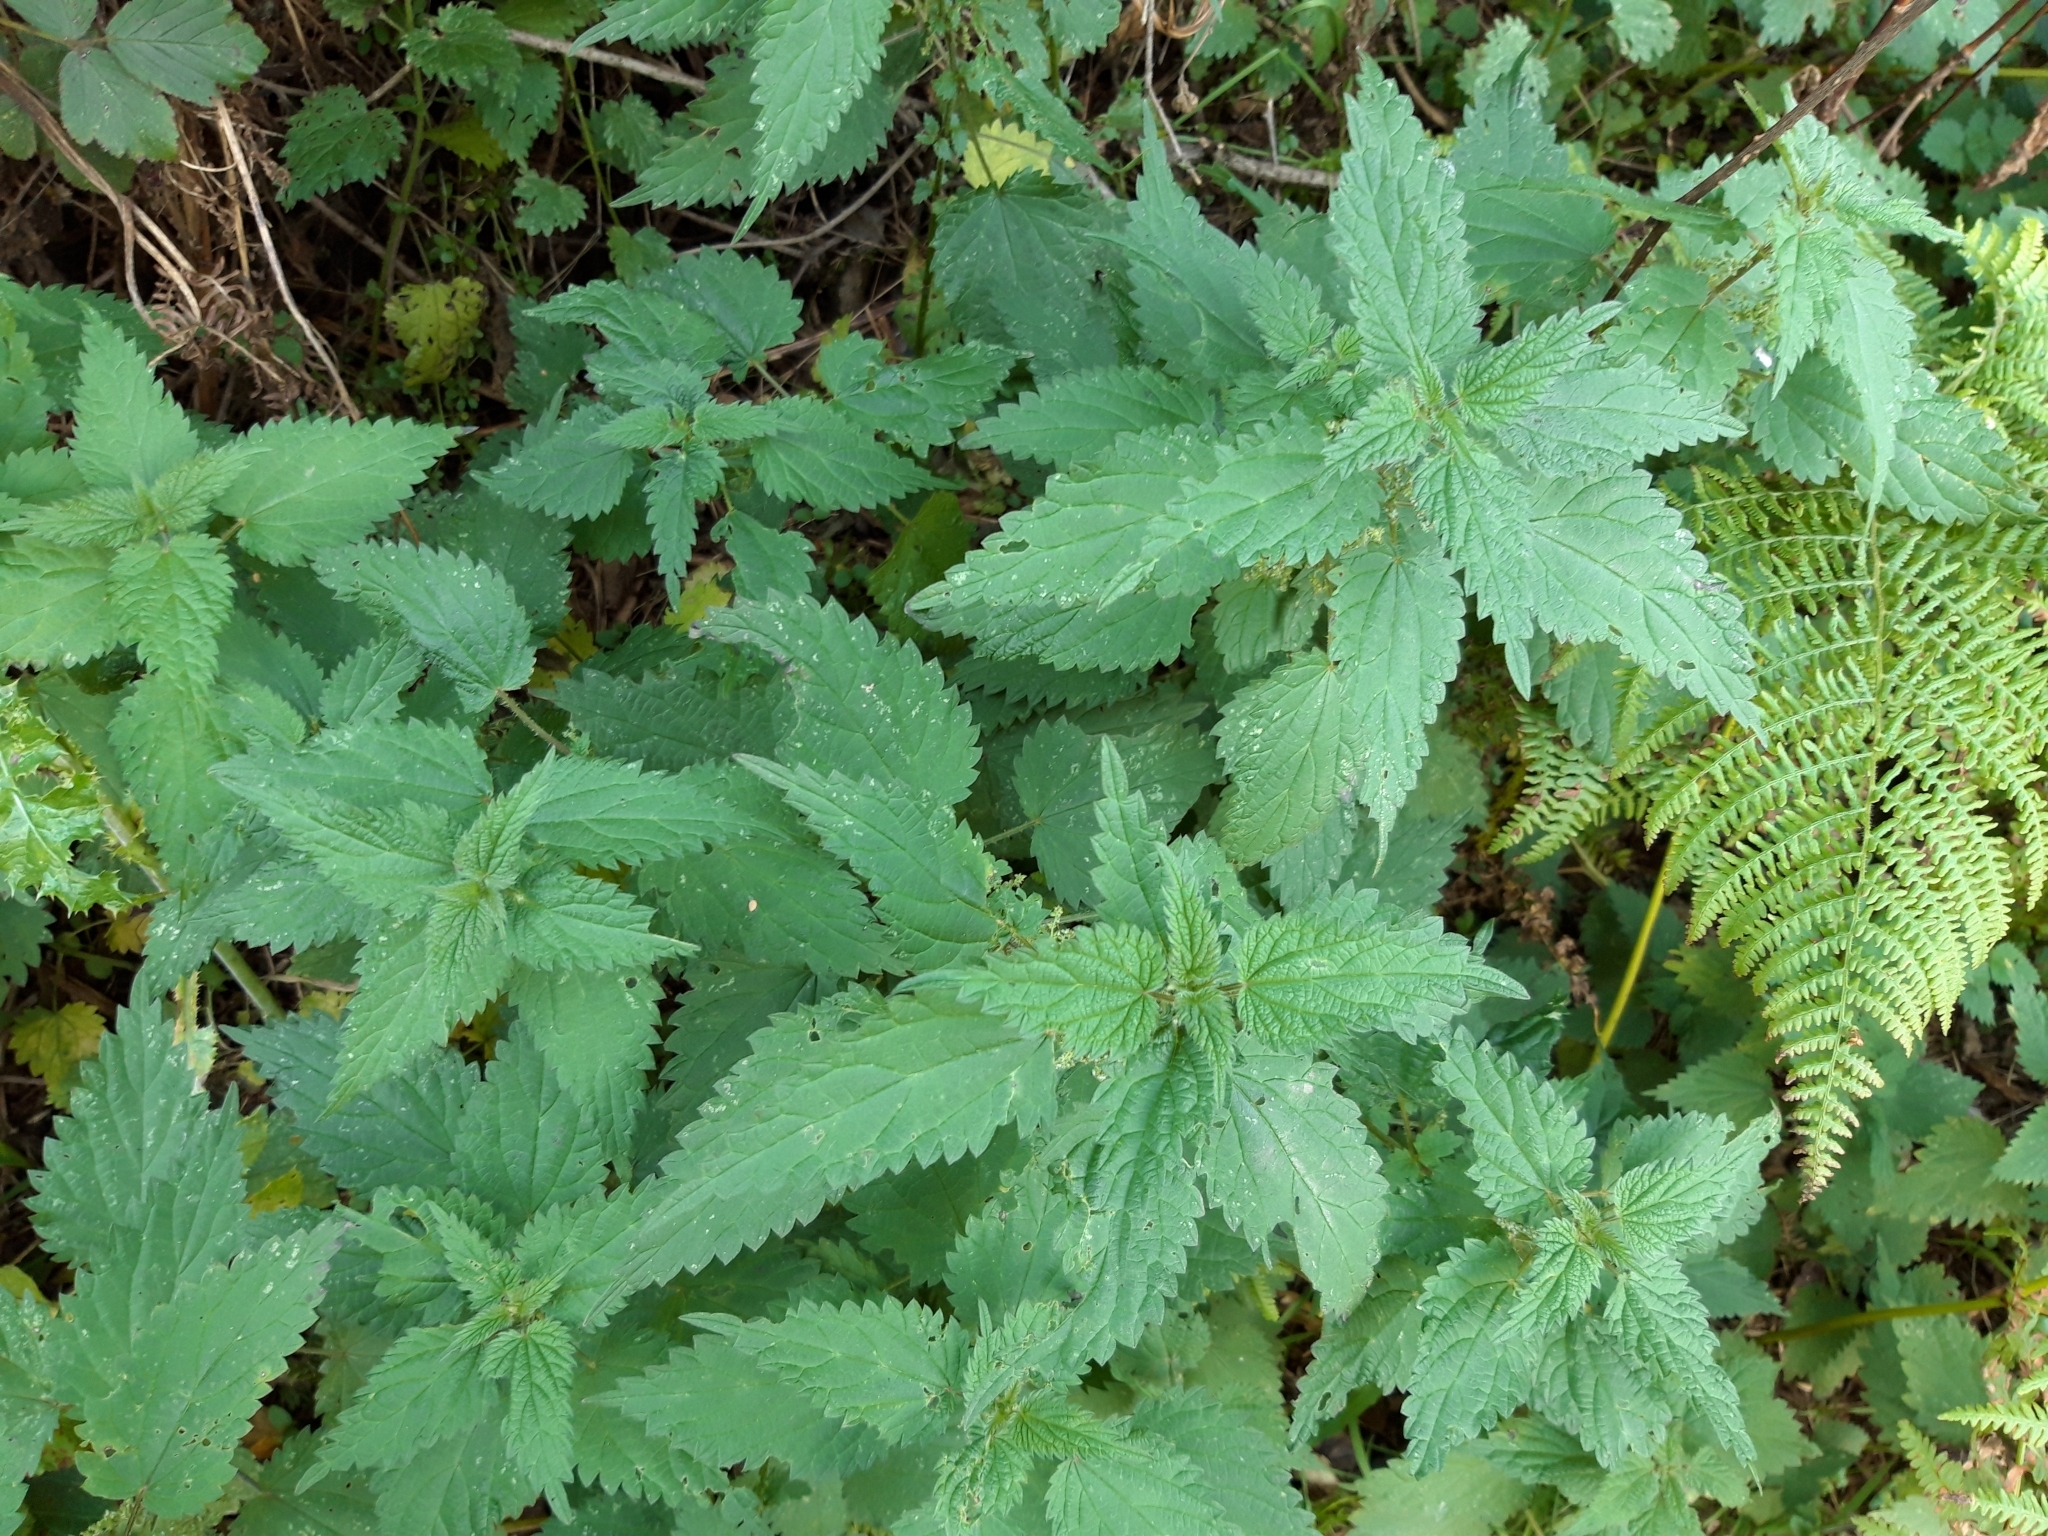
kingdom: Plantae
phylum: Tracheophyta
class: Magnoliopsida
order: Rosales
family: Urticaceae
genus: Urtica
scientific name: Urtica dioica
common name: Common nettle
